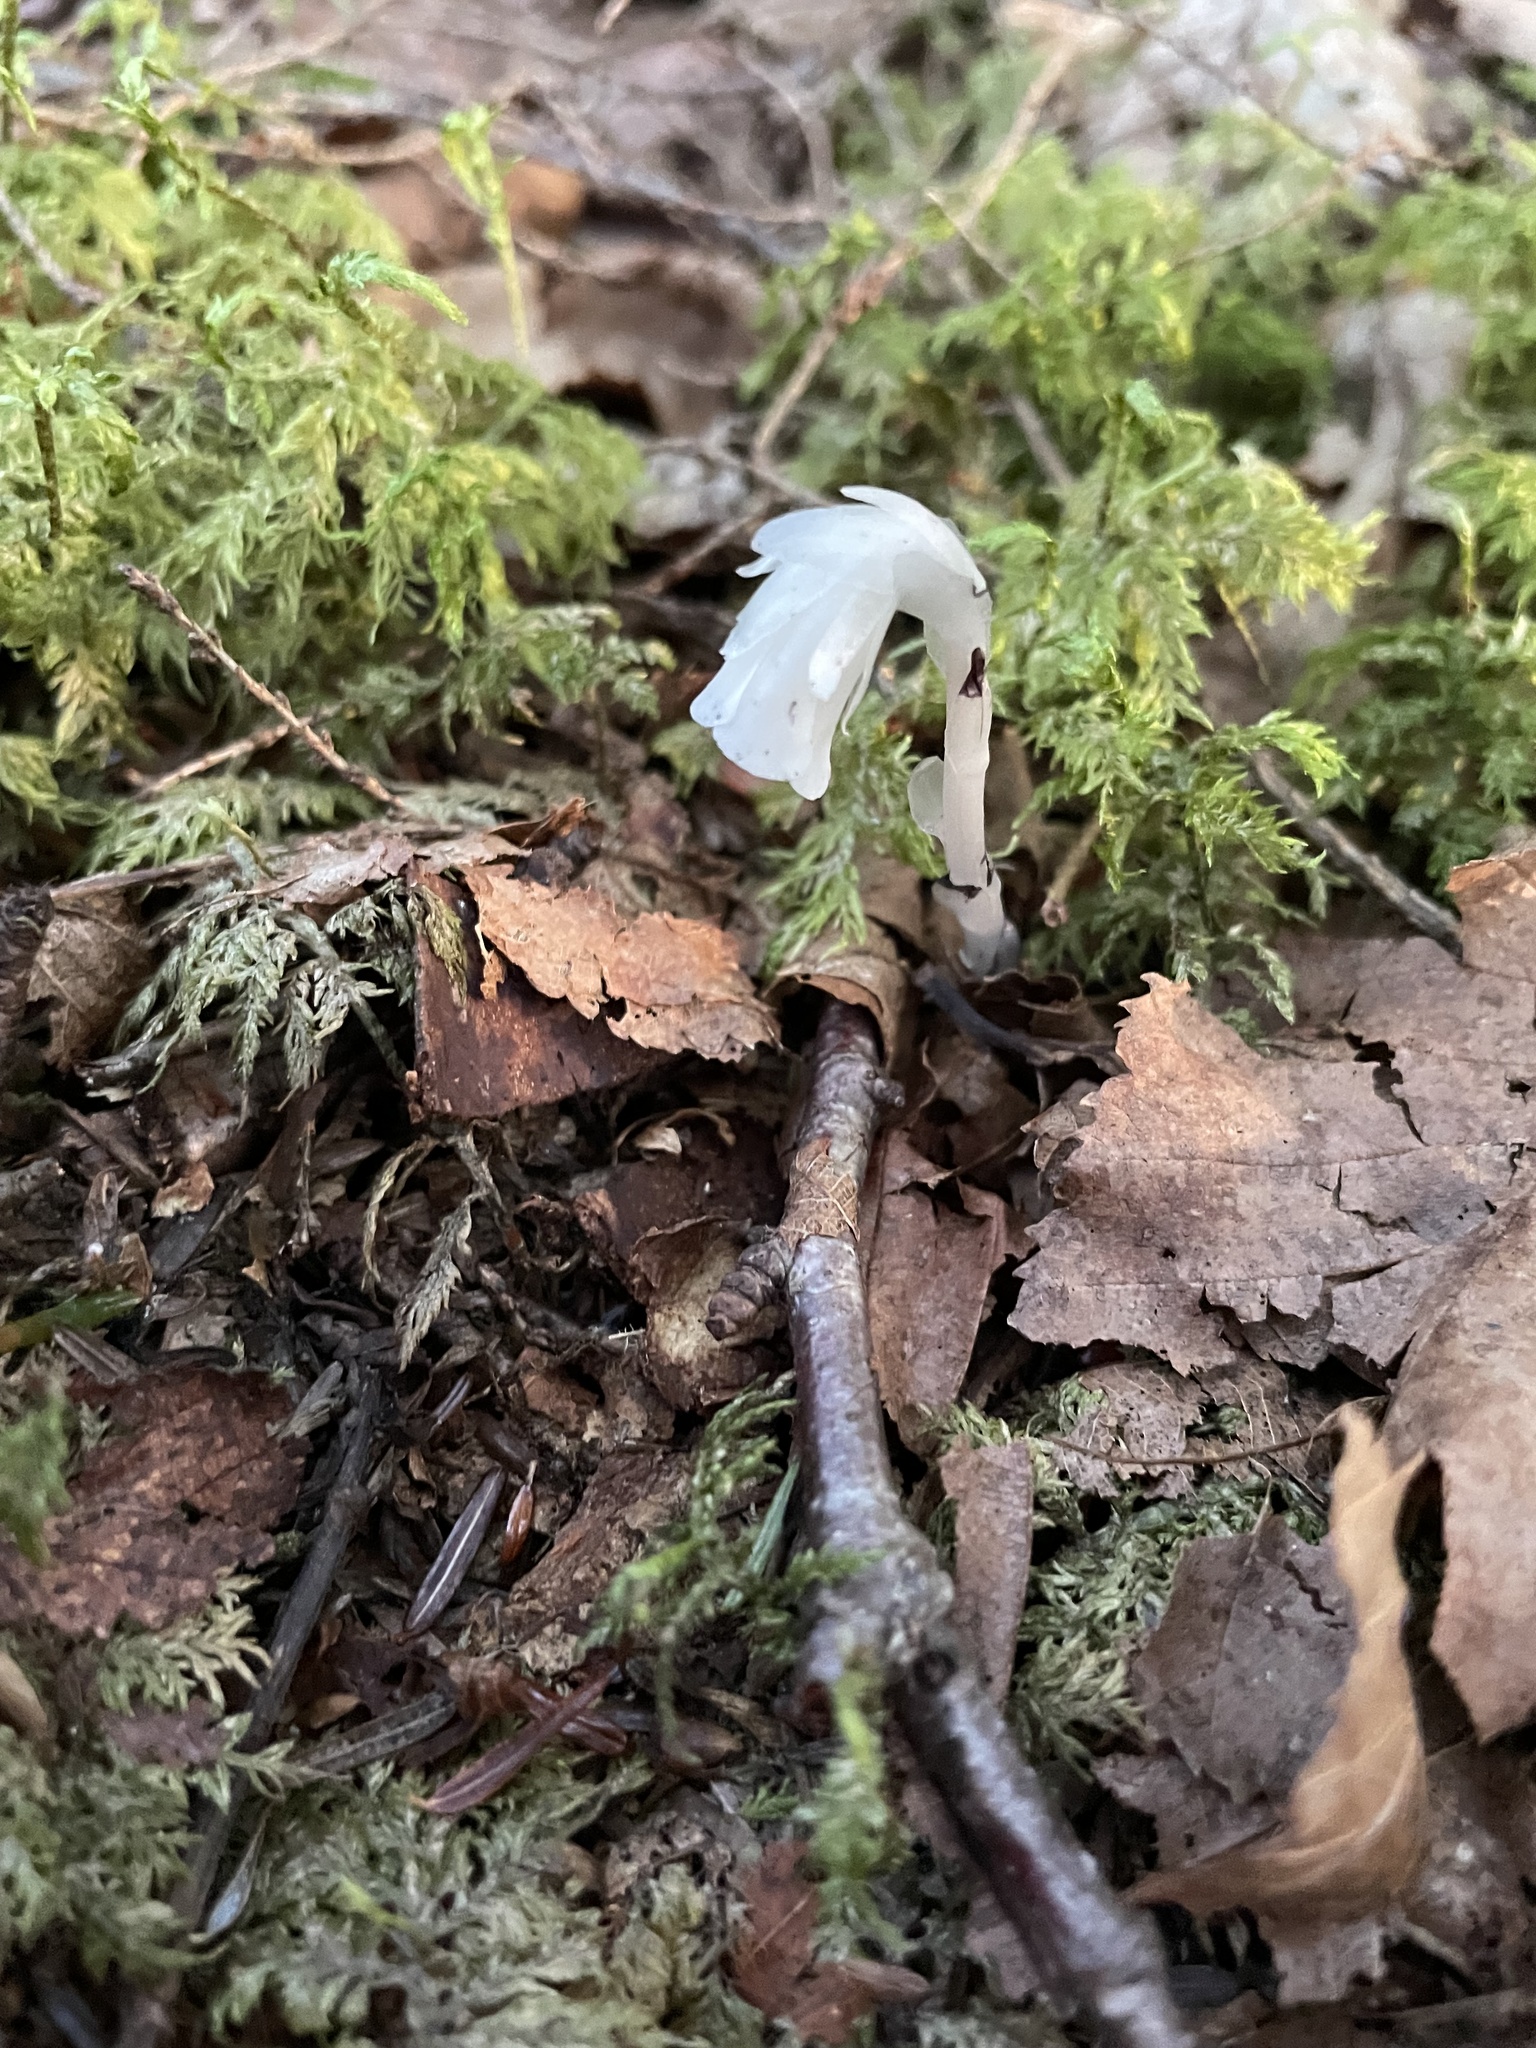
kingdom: Plantae
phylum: Tracheophyta
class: Magnoliopsida
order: Ericales
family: Ericaceae
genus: Monotropa
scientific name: Monotropa uniflora
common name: Convulsion root
